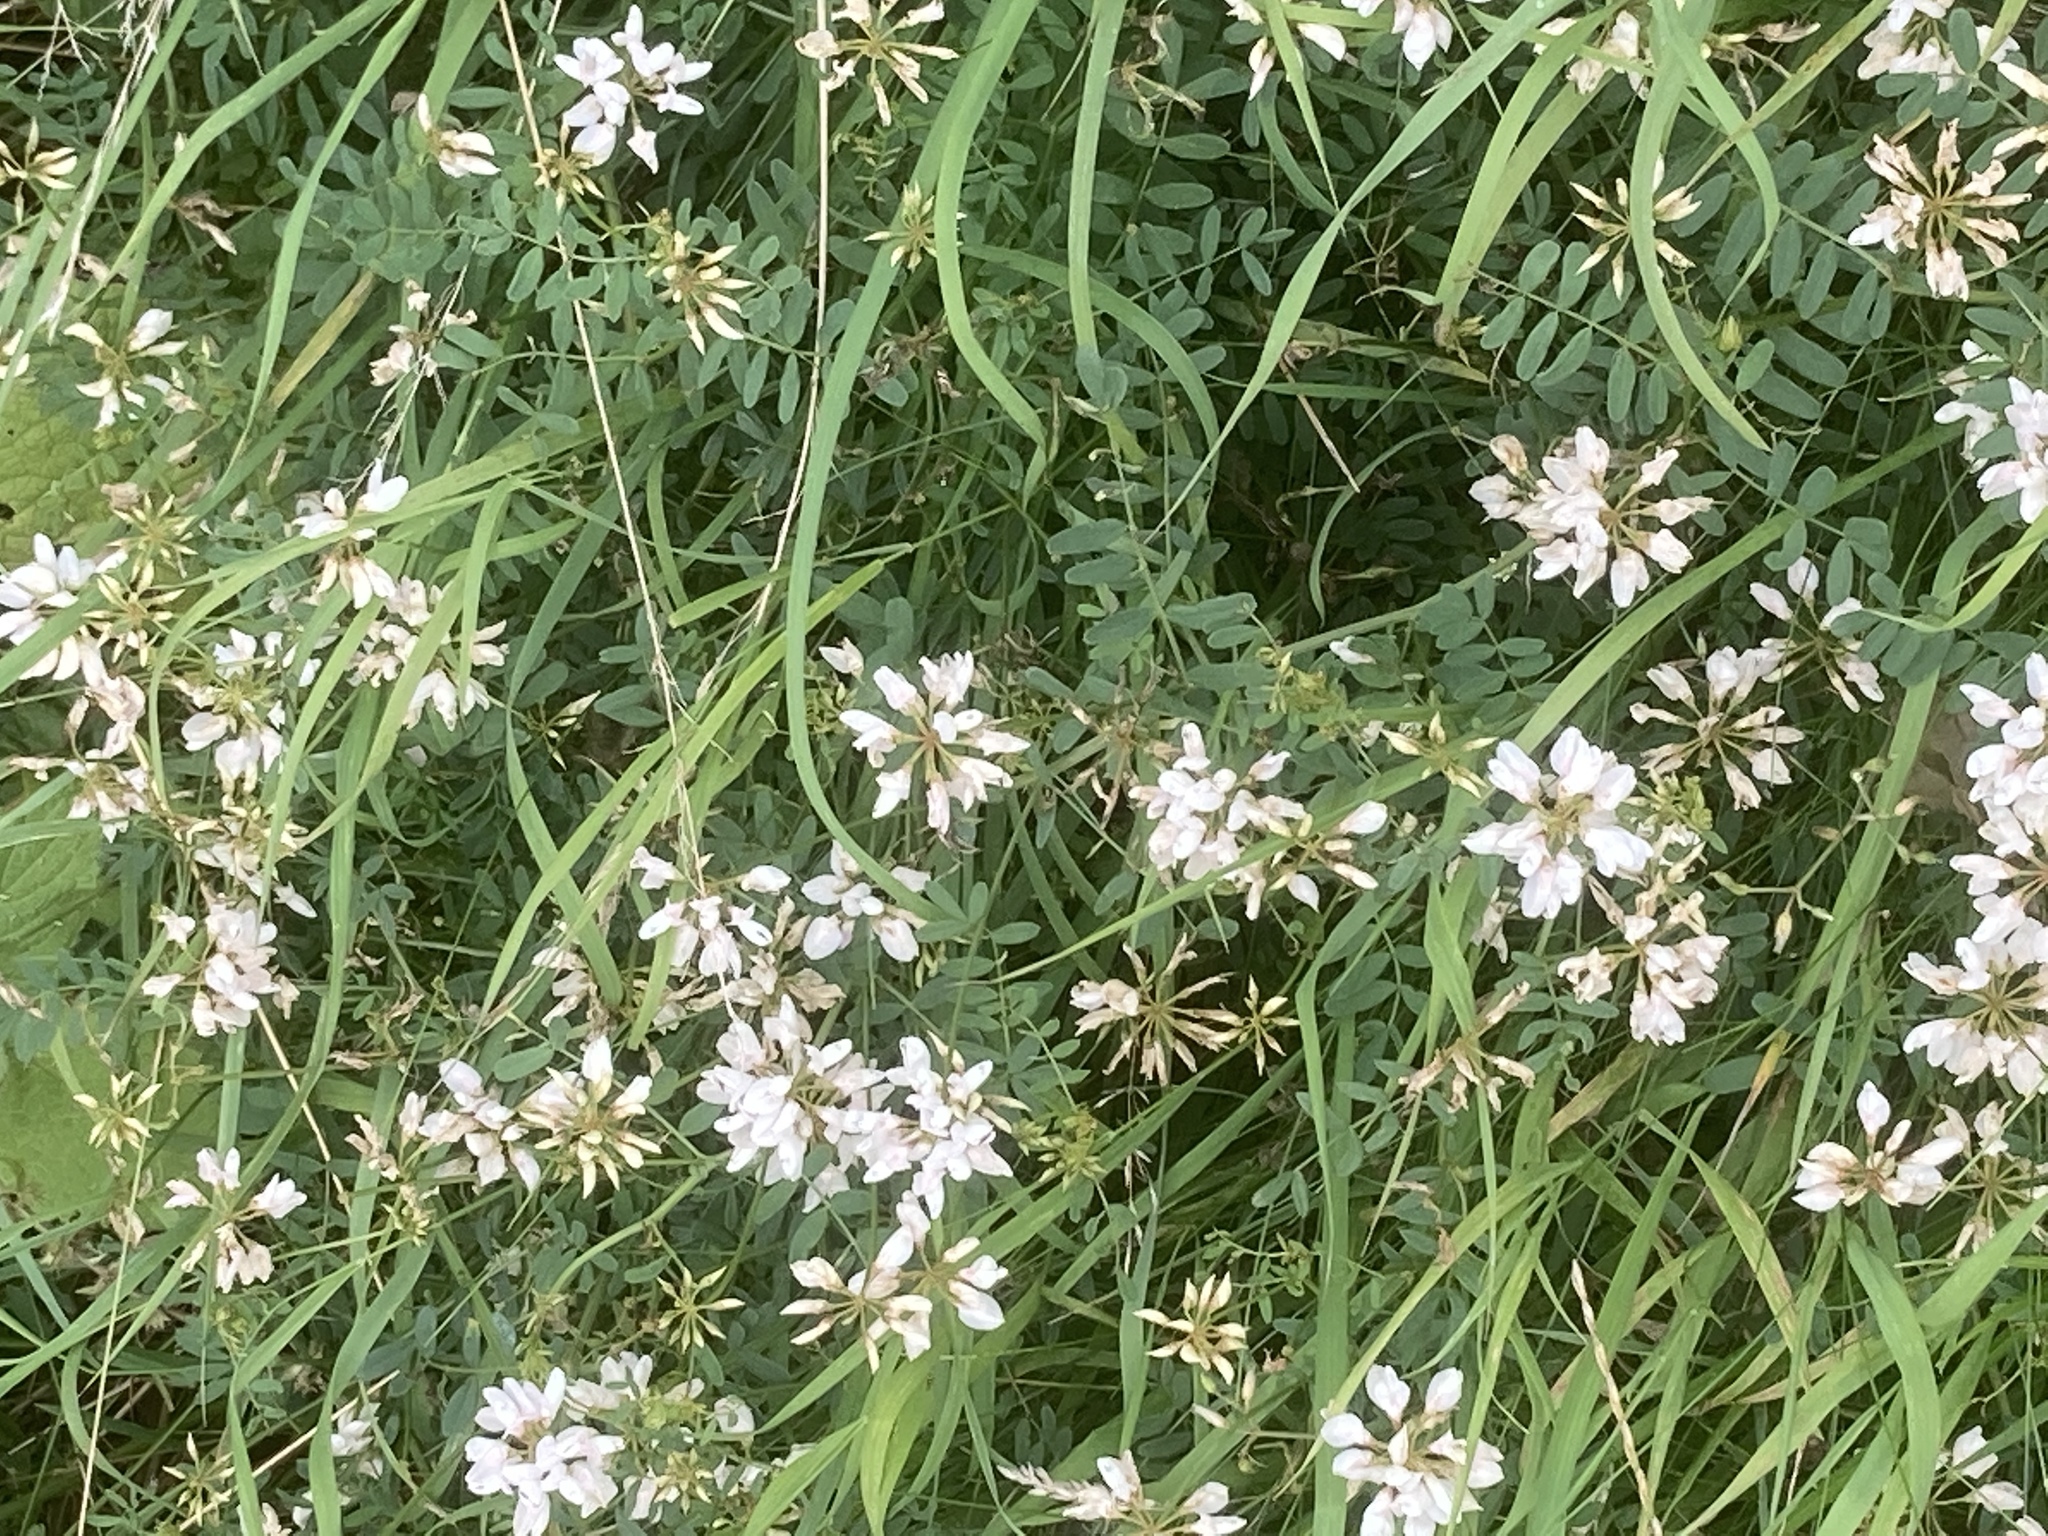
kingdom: Plantae
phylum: Tracheophyta
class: Magnoliopsida
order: Fabales
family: Fabaceae
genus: Coronilla
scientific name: Coronilla varia
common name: Crownvetch
